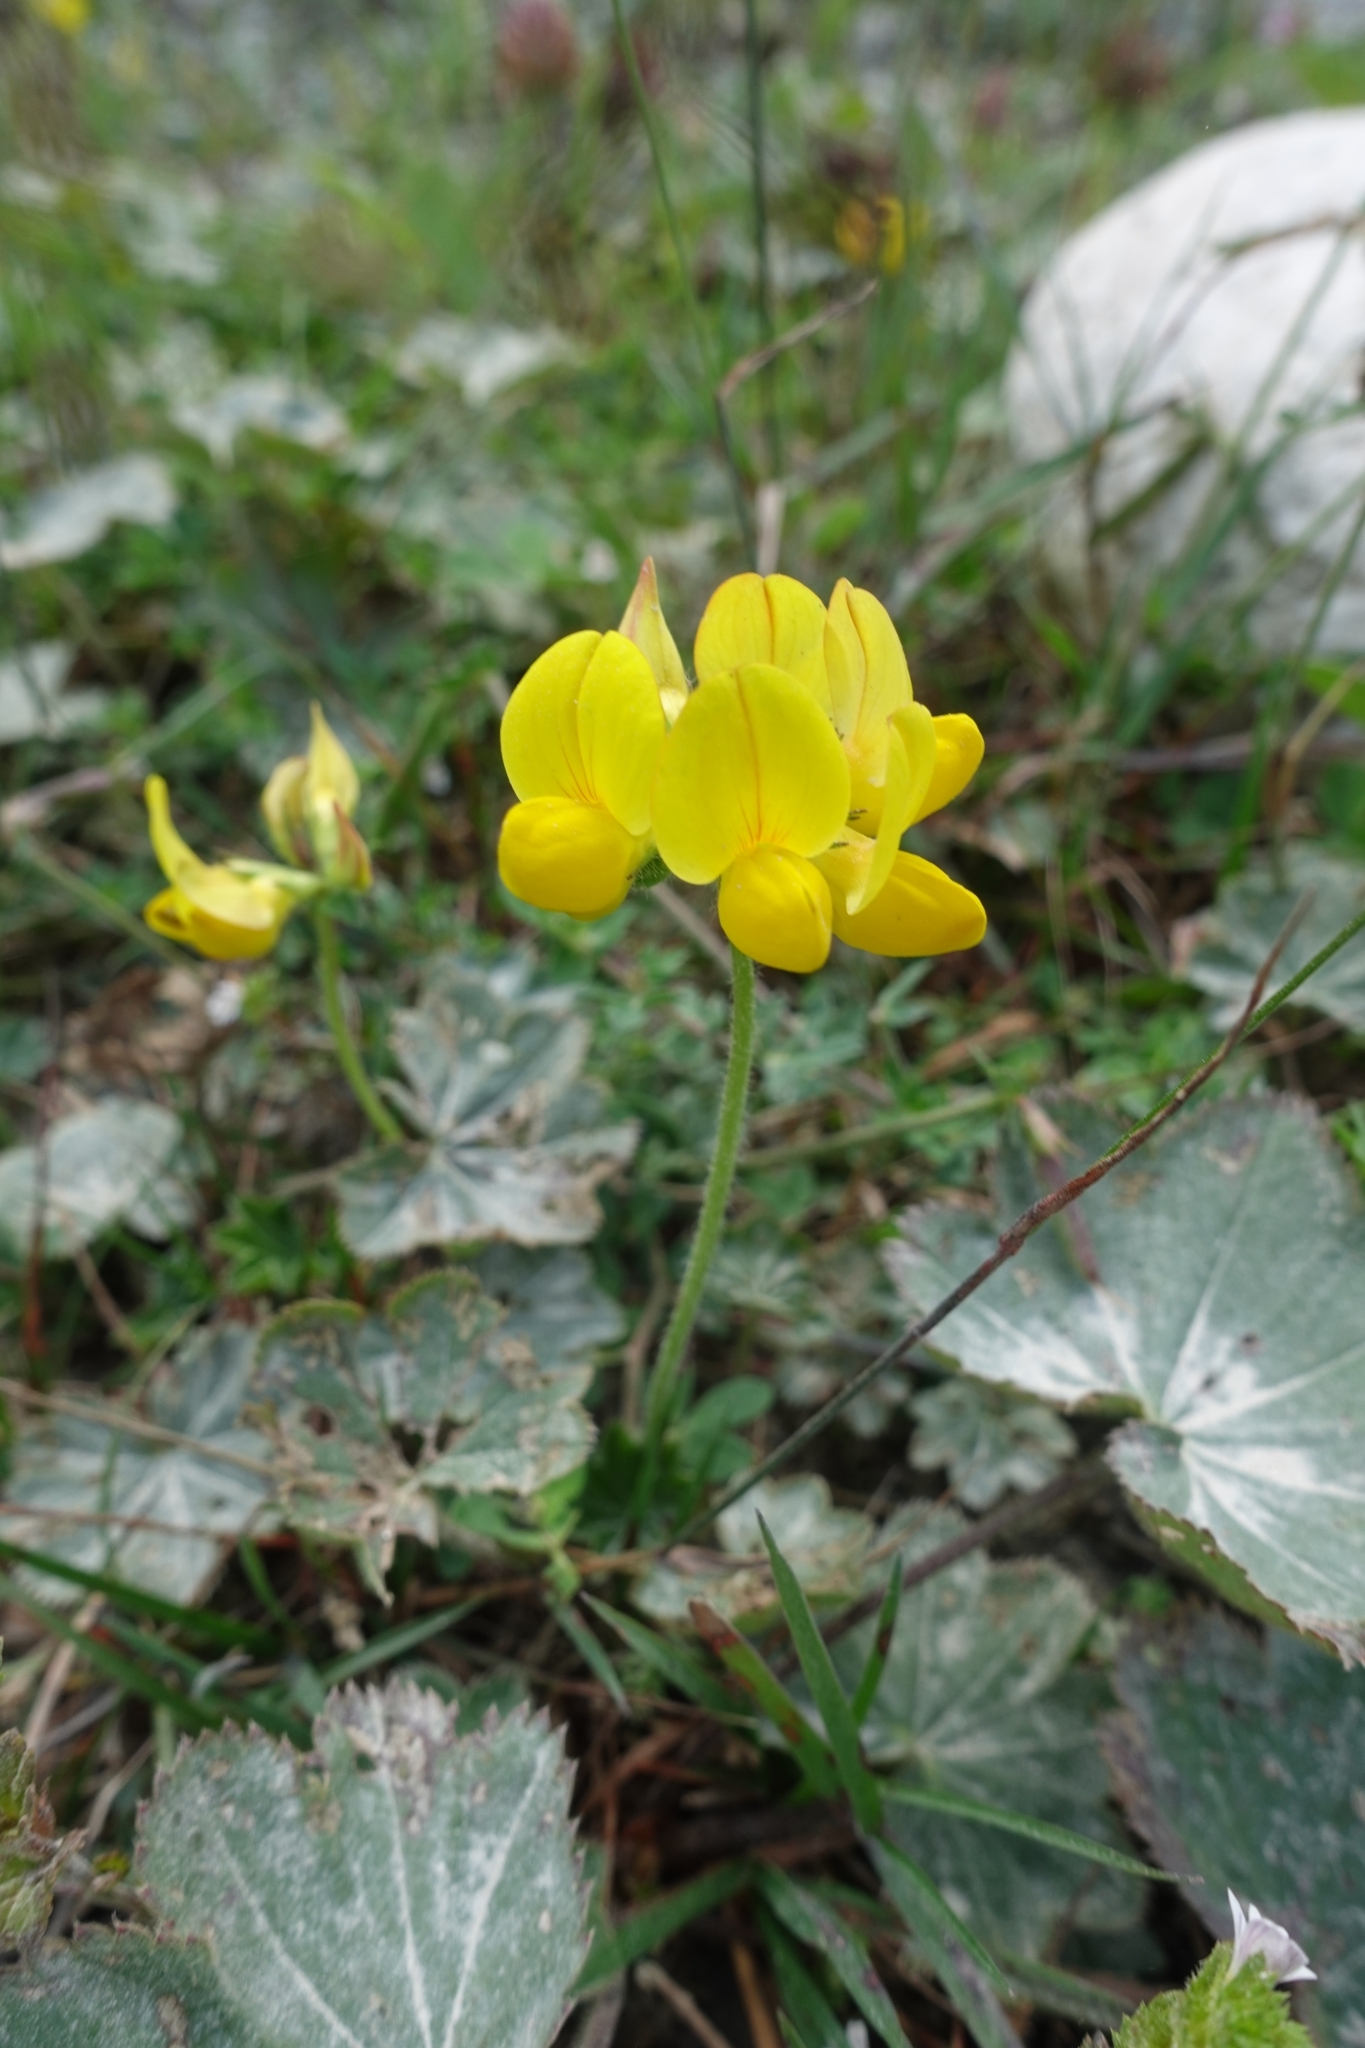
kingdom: Plantae
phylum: Tracheophyta
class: Magnoliopsida
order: Fabales
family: Fabaceae
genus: Lotus
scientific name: Lotus corniculatus
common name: Common bird's-foot-trefoil
